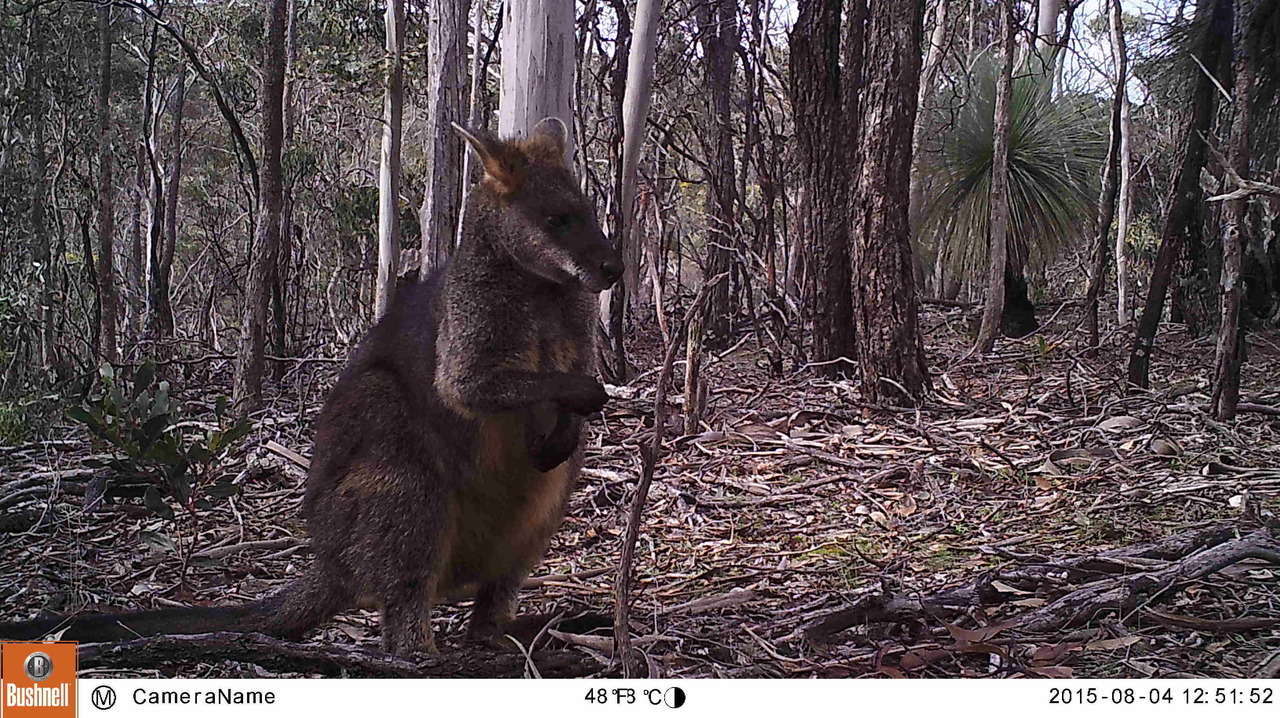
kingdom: Animalia
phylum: Chordata
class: Mammalia
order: Diprotodontia
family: Macropodidae
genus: Wallabia
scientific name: Wallabia bicolor
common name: Swamp wallaby
